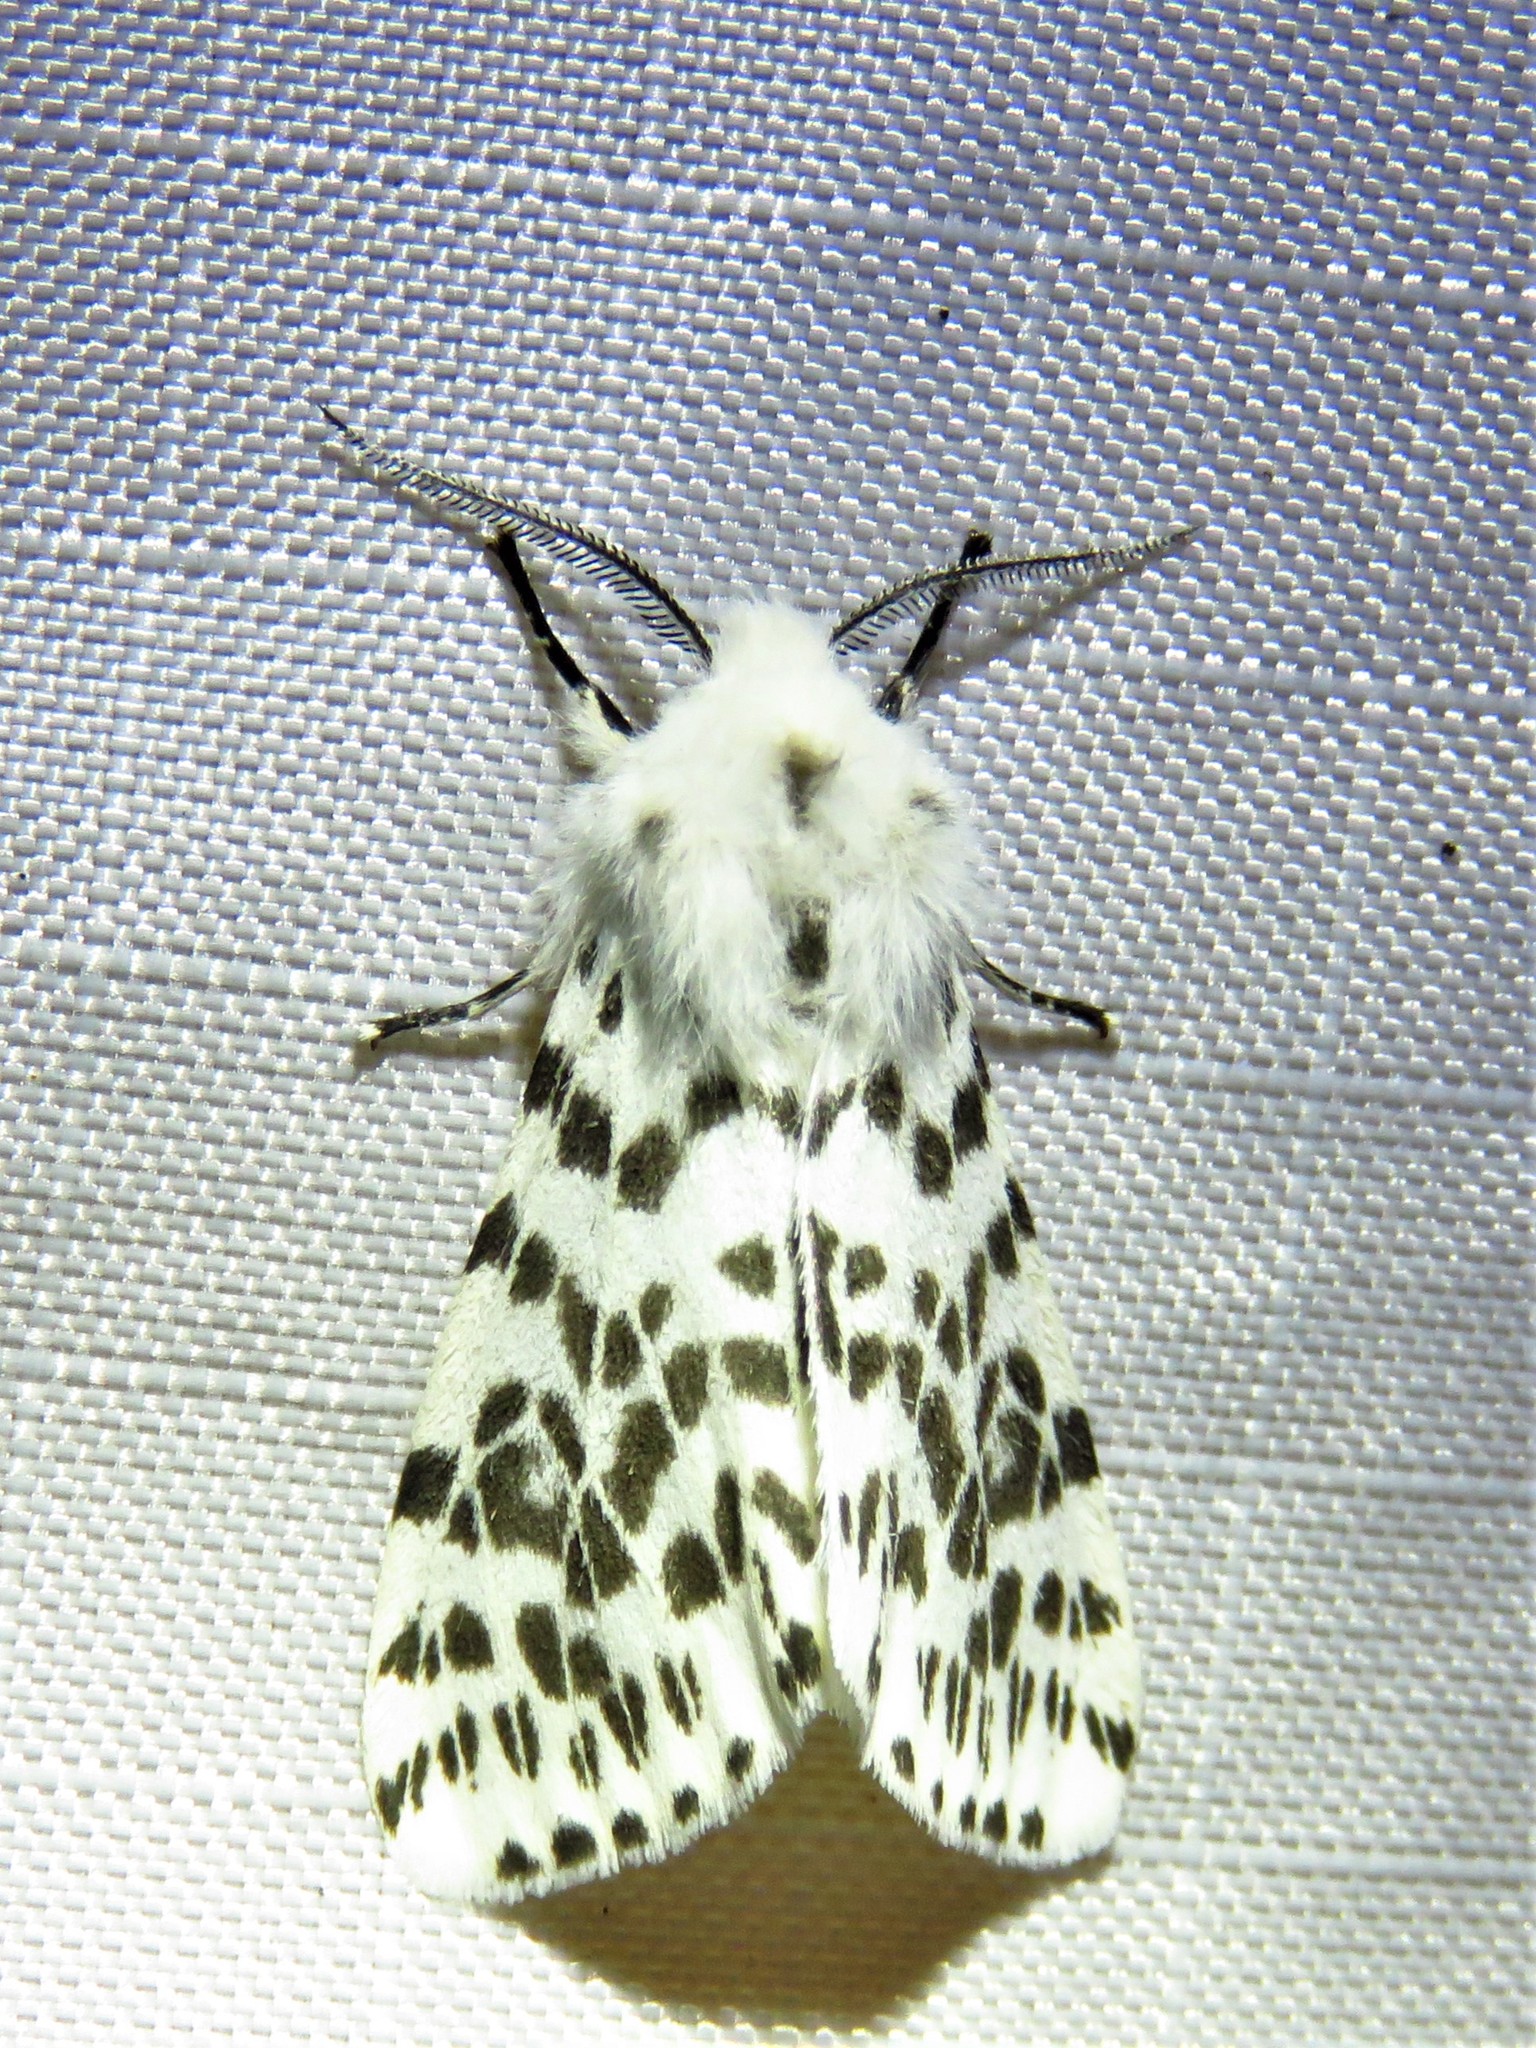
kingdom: Animalia
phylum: Arthropoda
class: Insecta
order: Lepidoptera
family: Erebidae
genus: Hyphantria
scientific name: Hyphantria cunea
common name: American white moth
